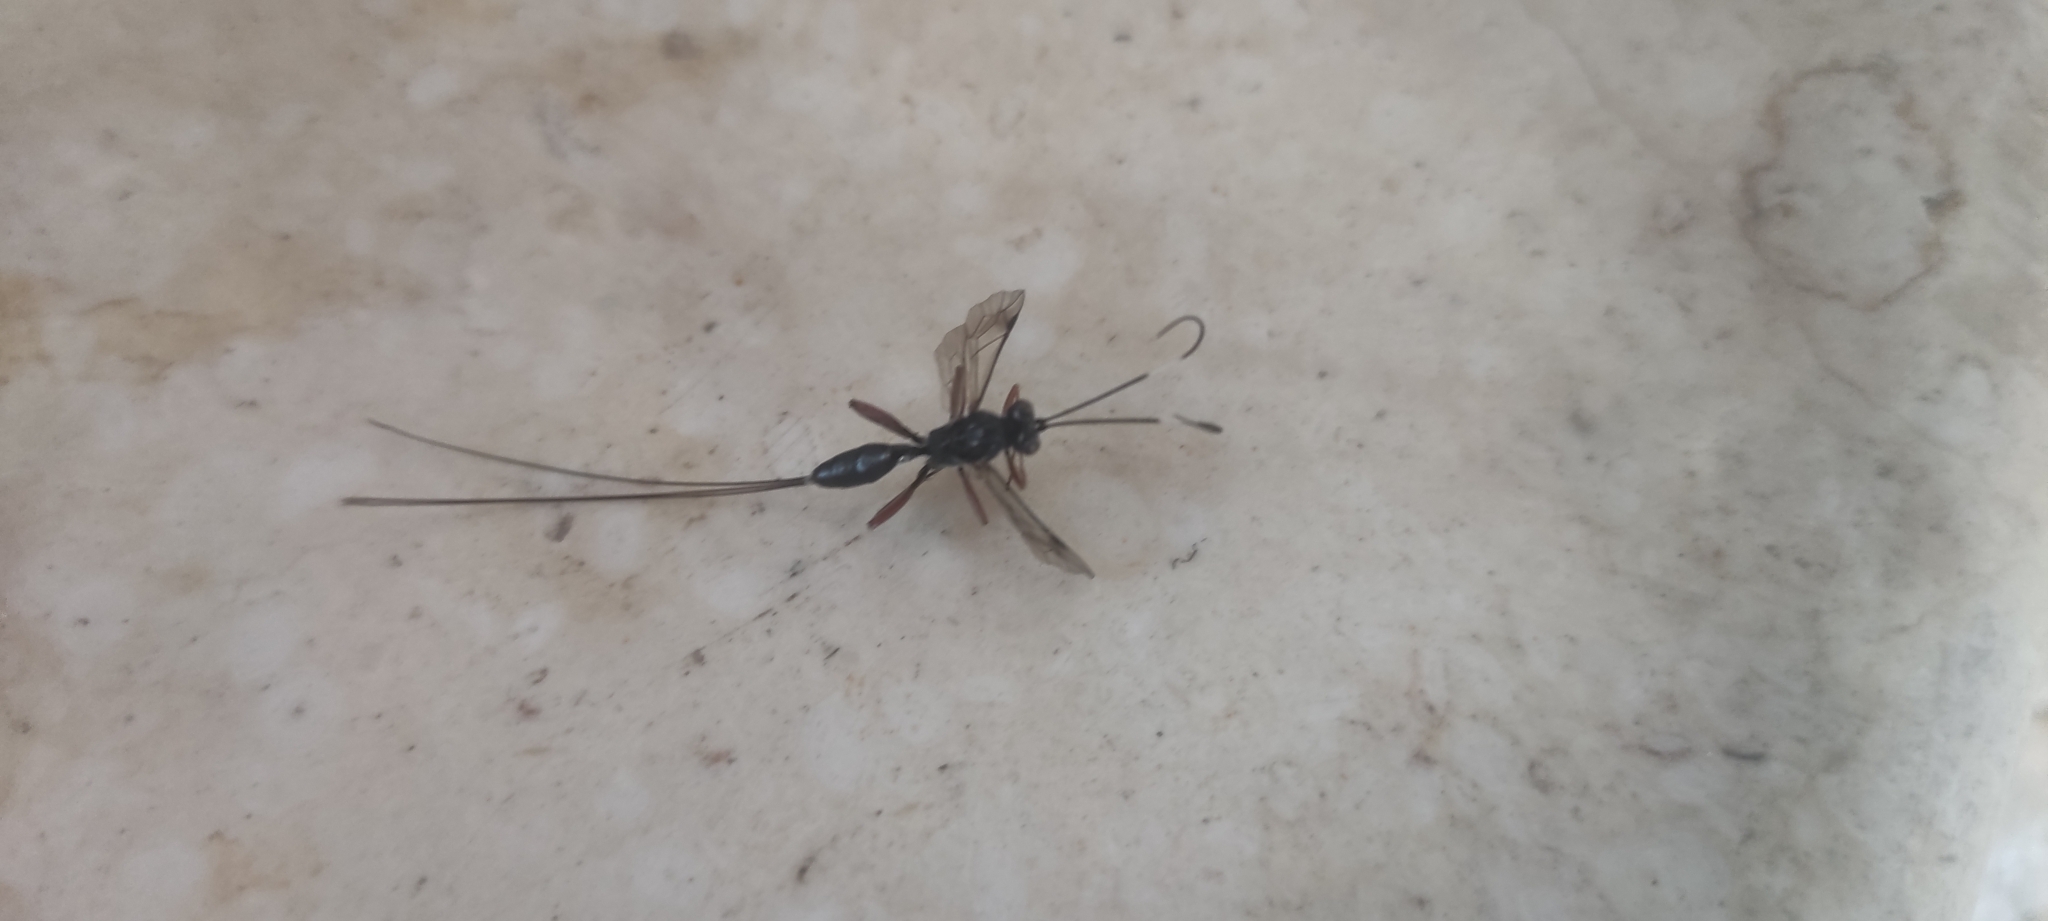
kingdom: Animalia
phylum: Arthropoda
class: Insecta
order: Hymenoptera
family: Ichneumonidae
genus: Stenarella
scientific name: Stenarella domator
